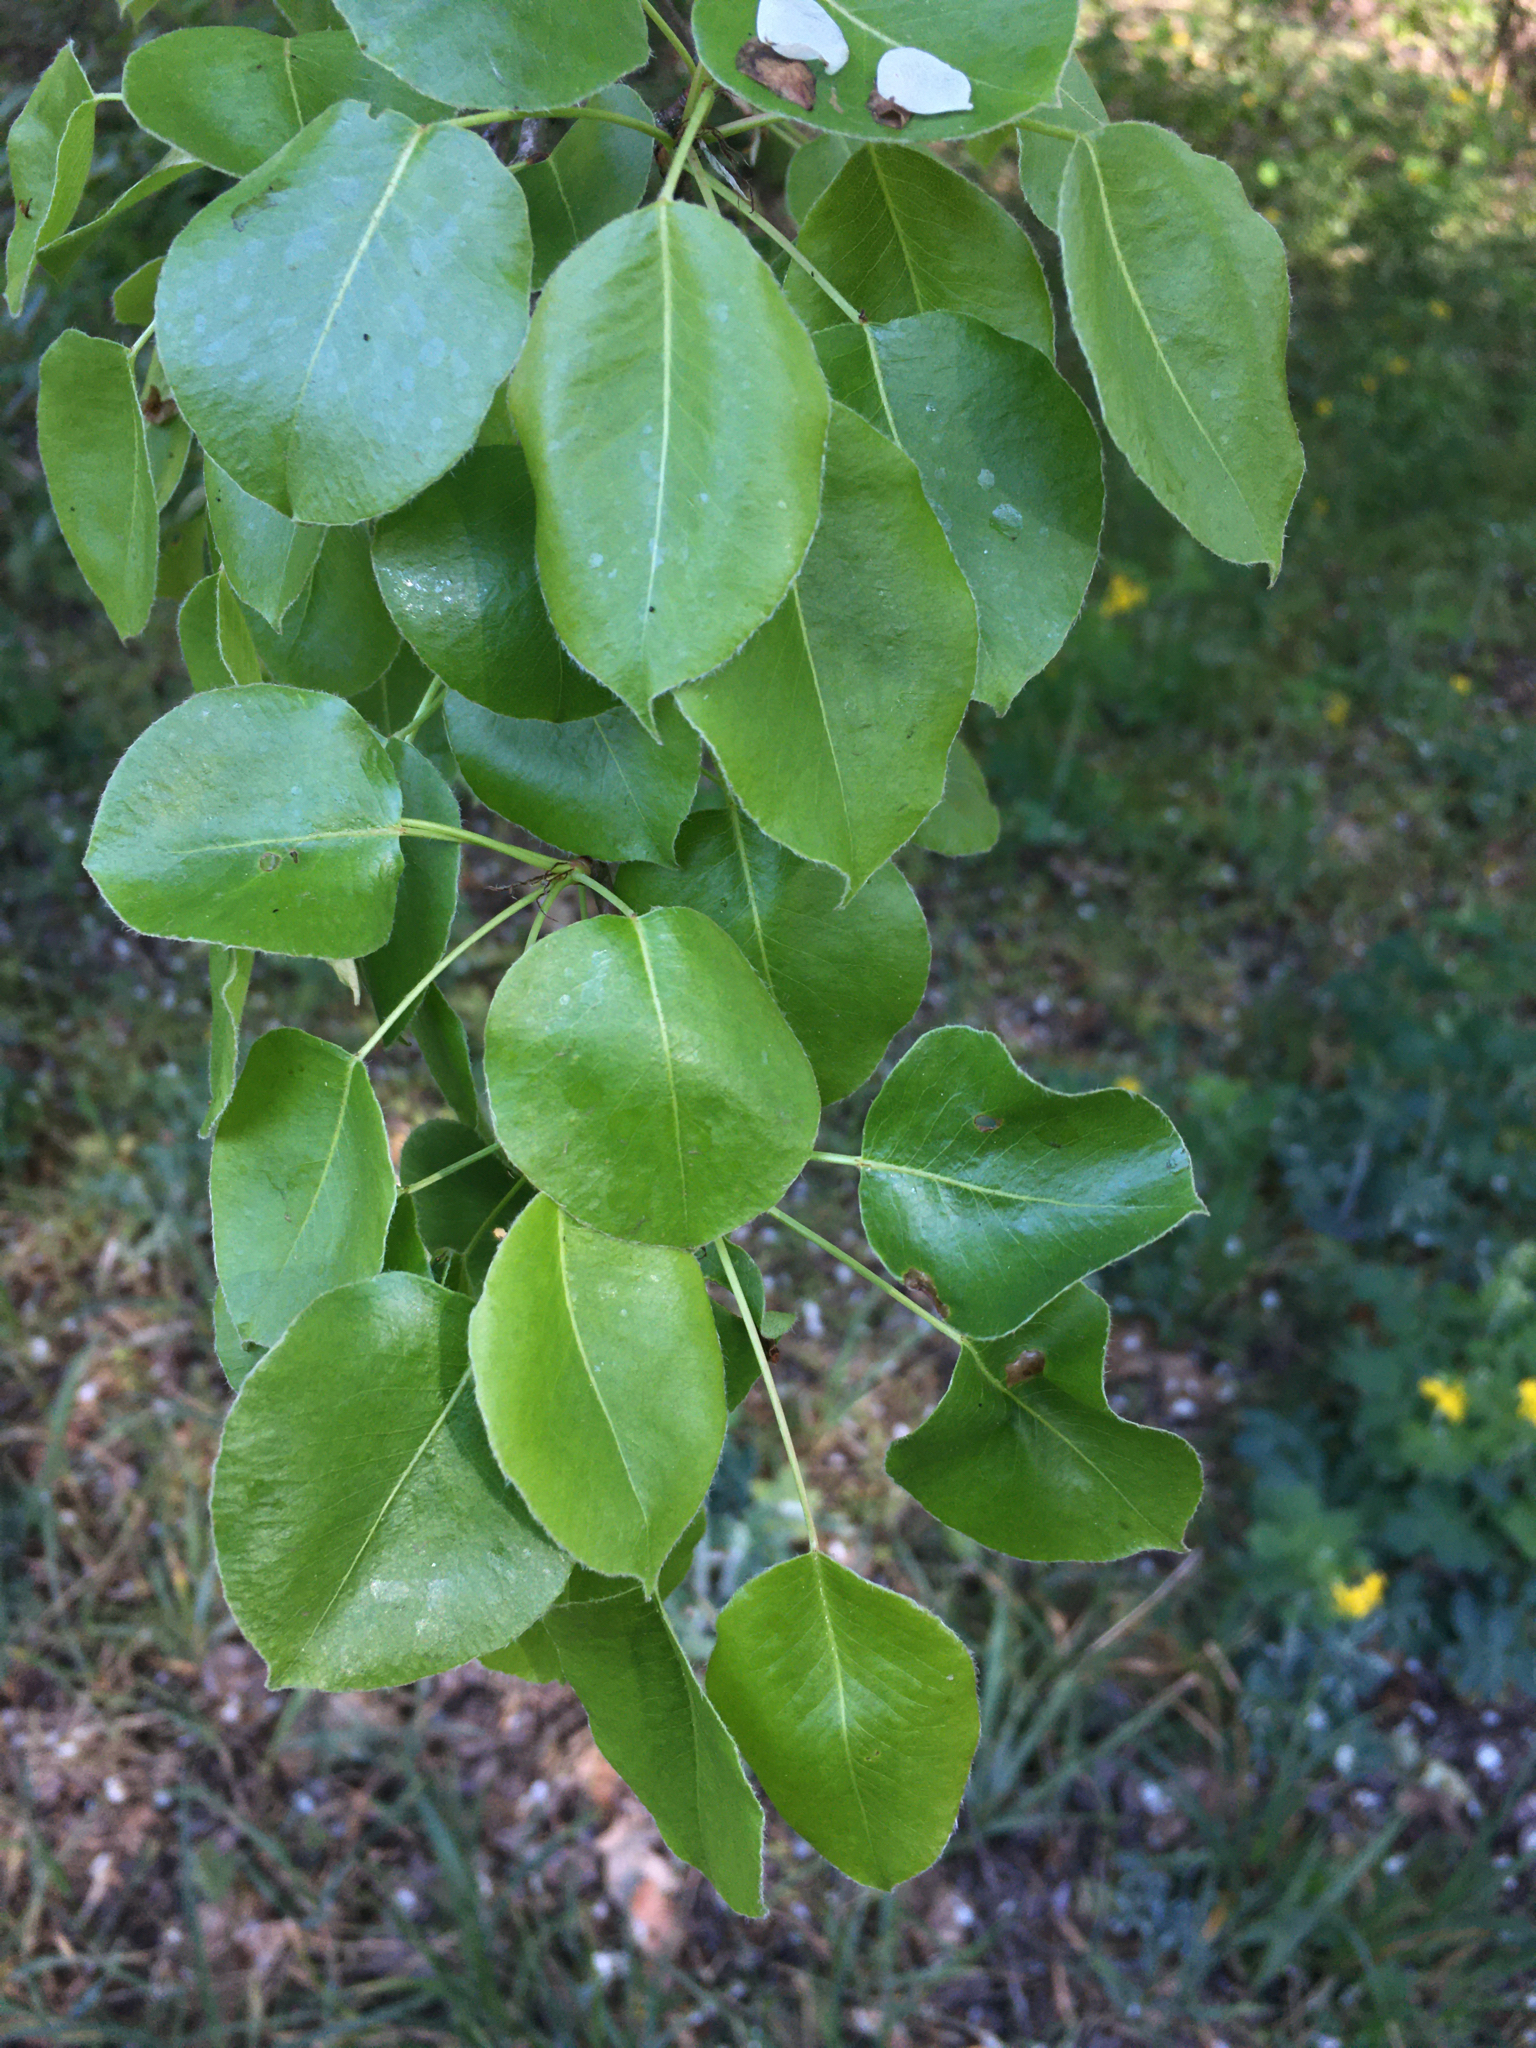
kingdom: Plantae
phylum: Tracheophyta
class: Magnoliopsida
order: Rosales
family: Rosaceae
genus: Pyrus
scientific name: Pyrus communis
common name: Pear
